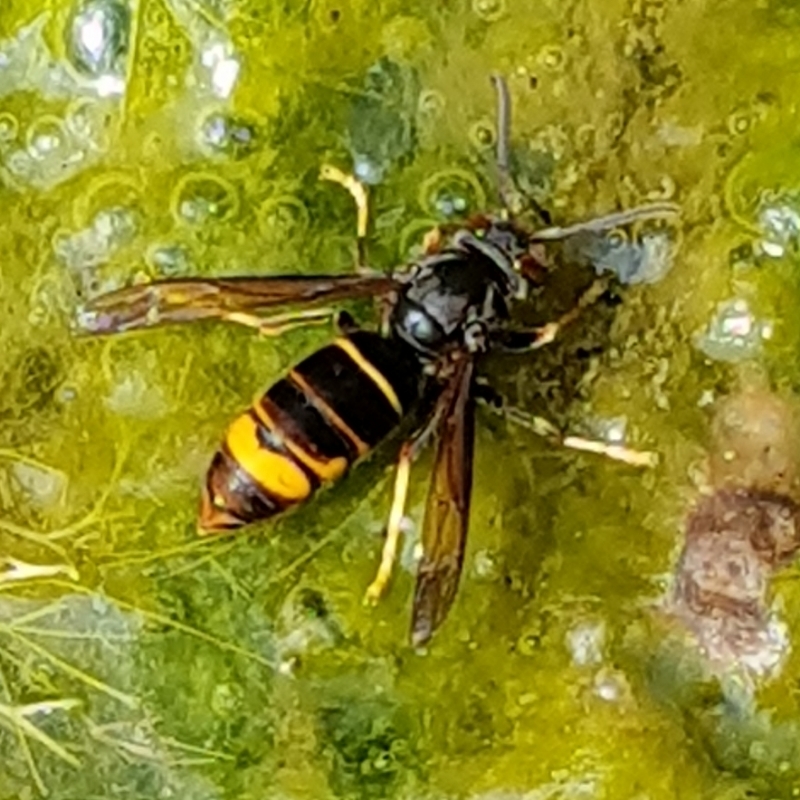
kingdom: Animalia
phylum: Arthropoda
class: Insecta
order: Hymenoptera
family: Vespidae
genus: Vespa
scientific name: Vespa velutina
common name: Asian hornet
